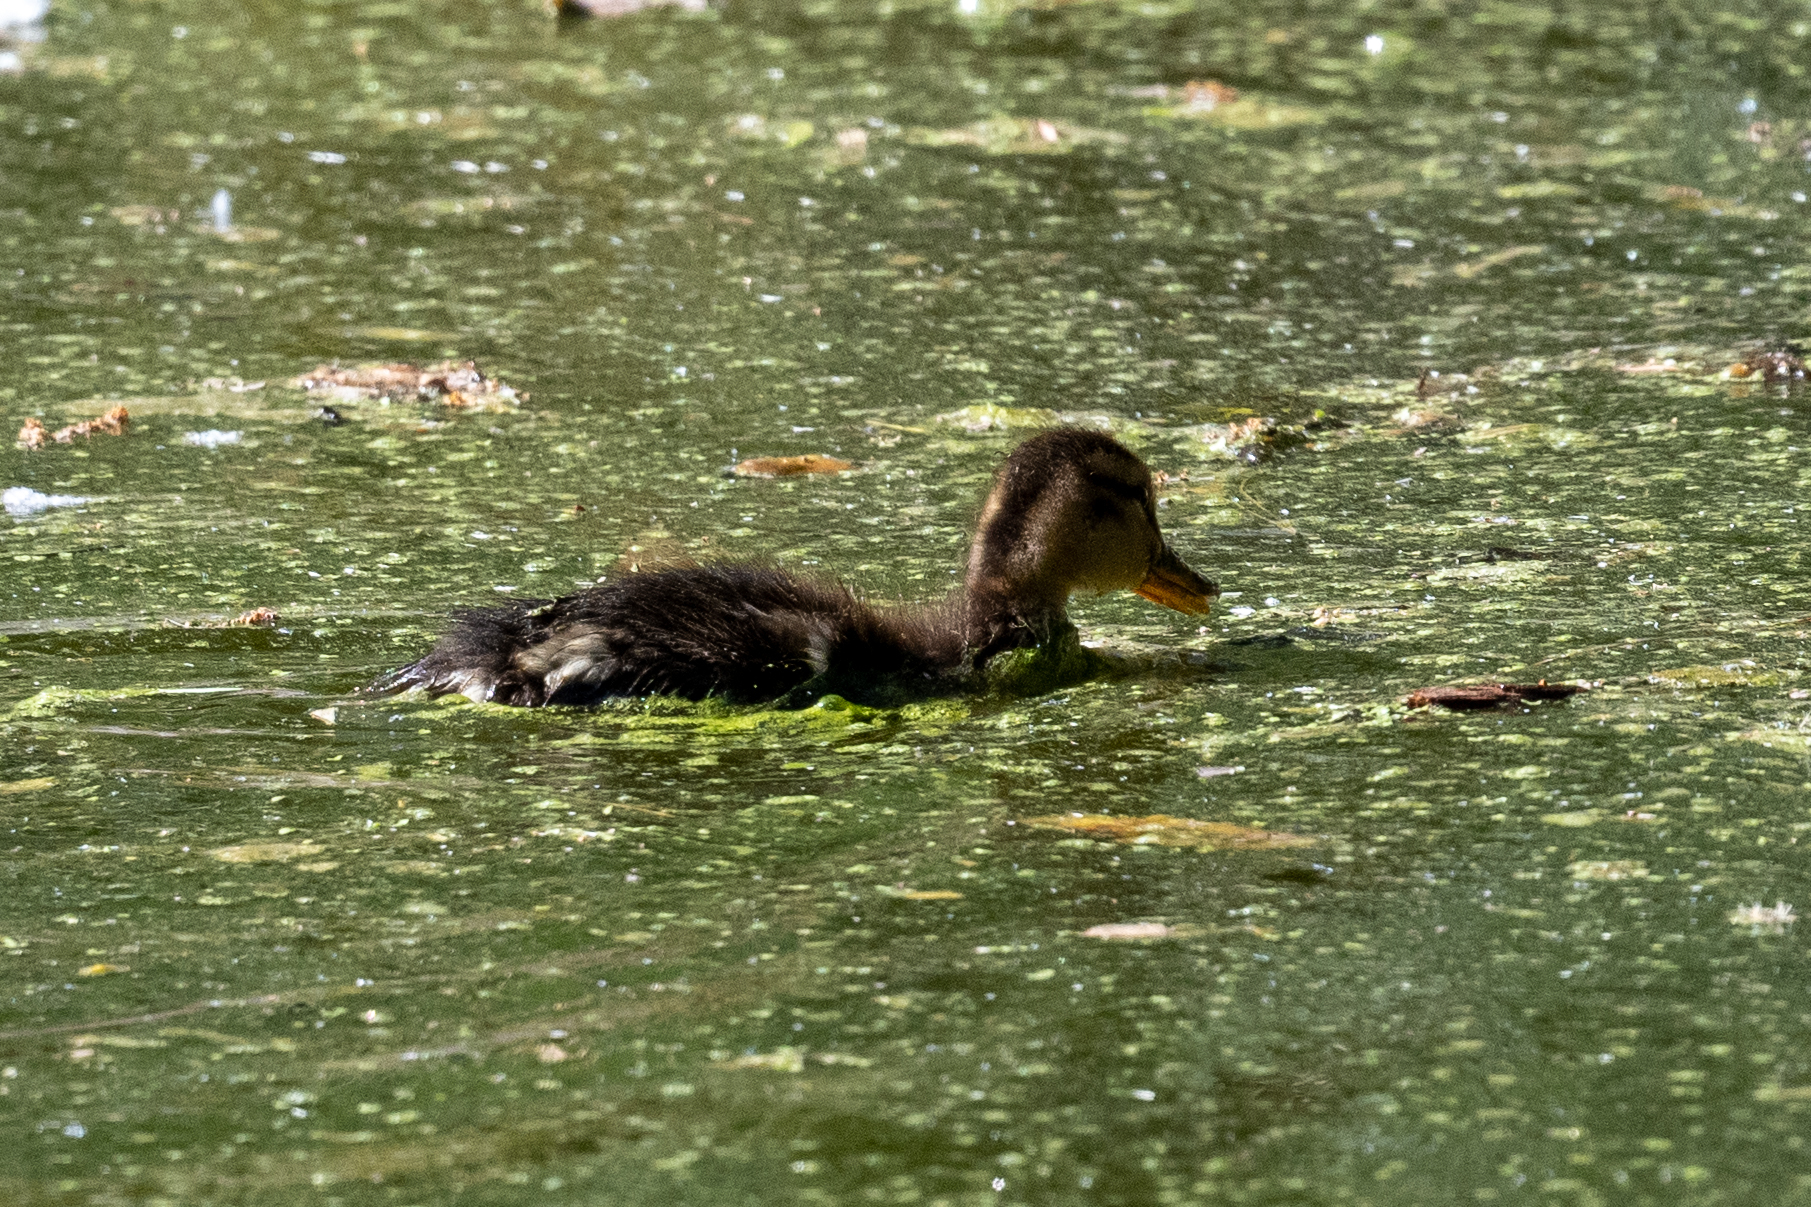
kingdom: Animalia
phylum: Chordata
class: Aves
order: Anseriformes
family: Anatidae
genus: Anas
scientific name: Anas platyrhynchos
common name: Mallard
